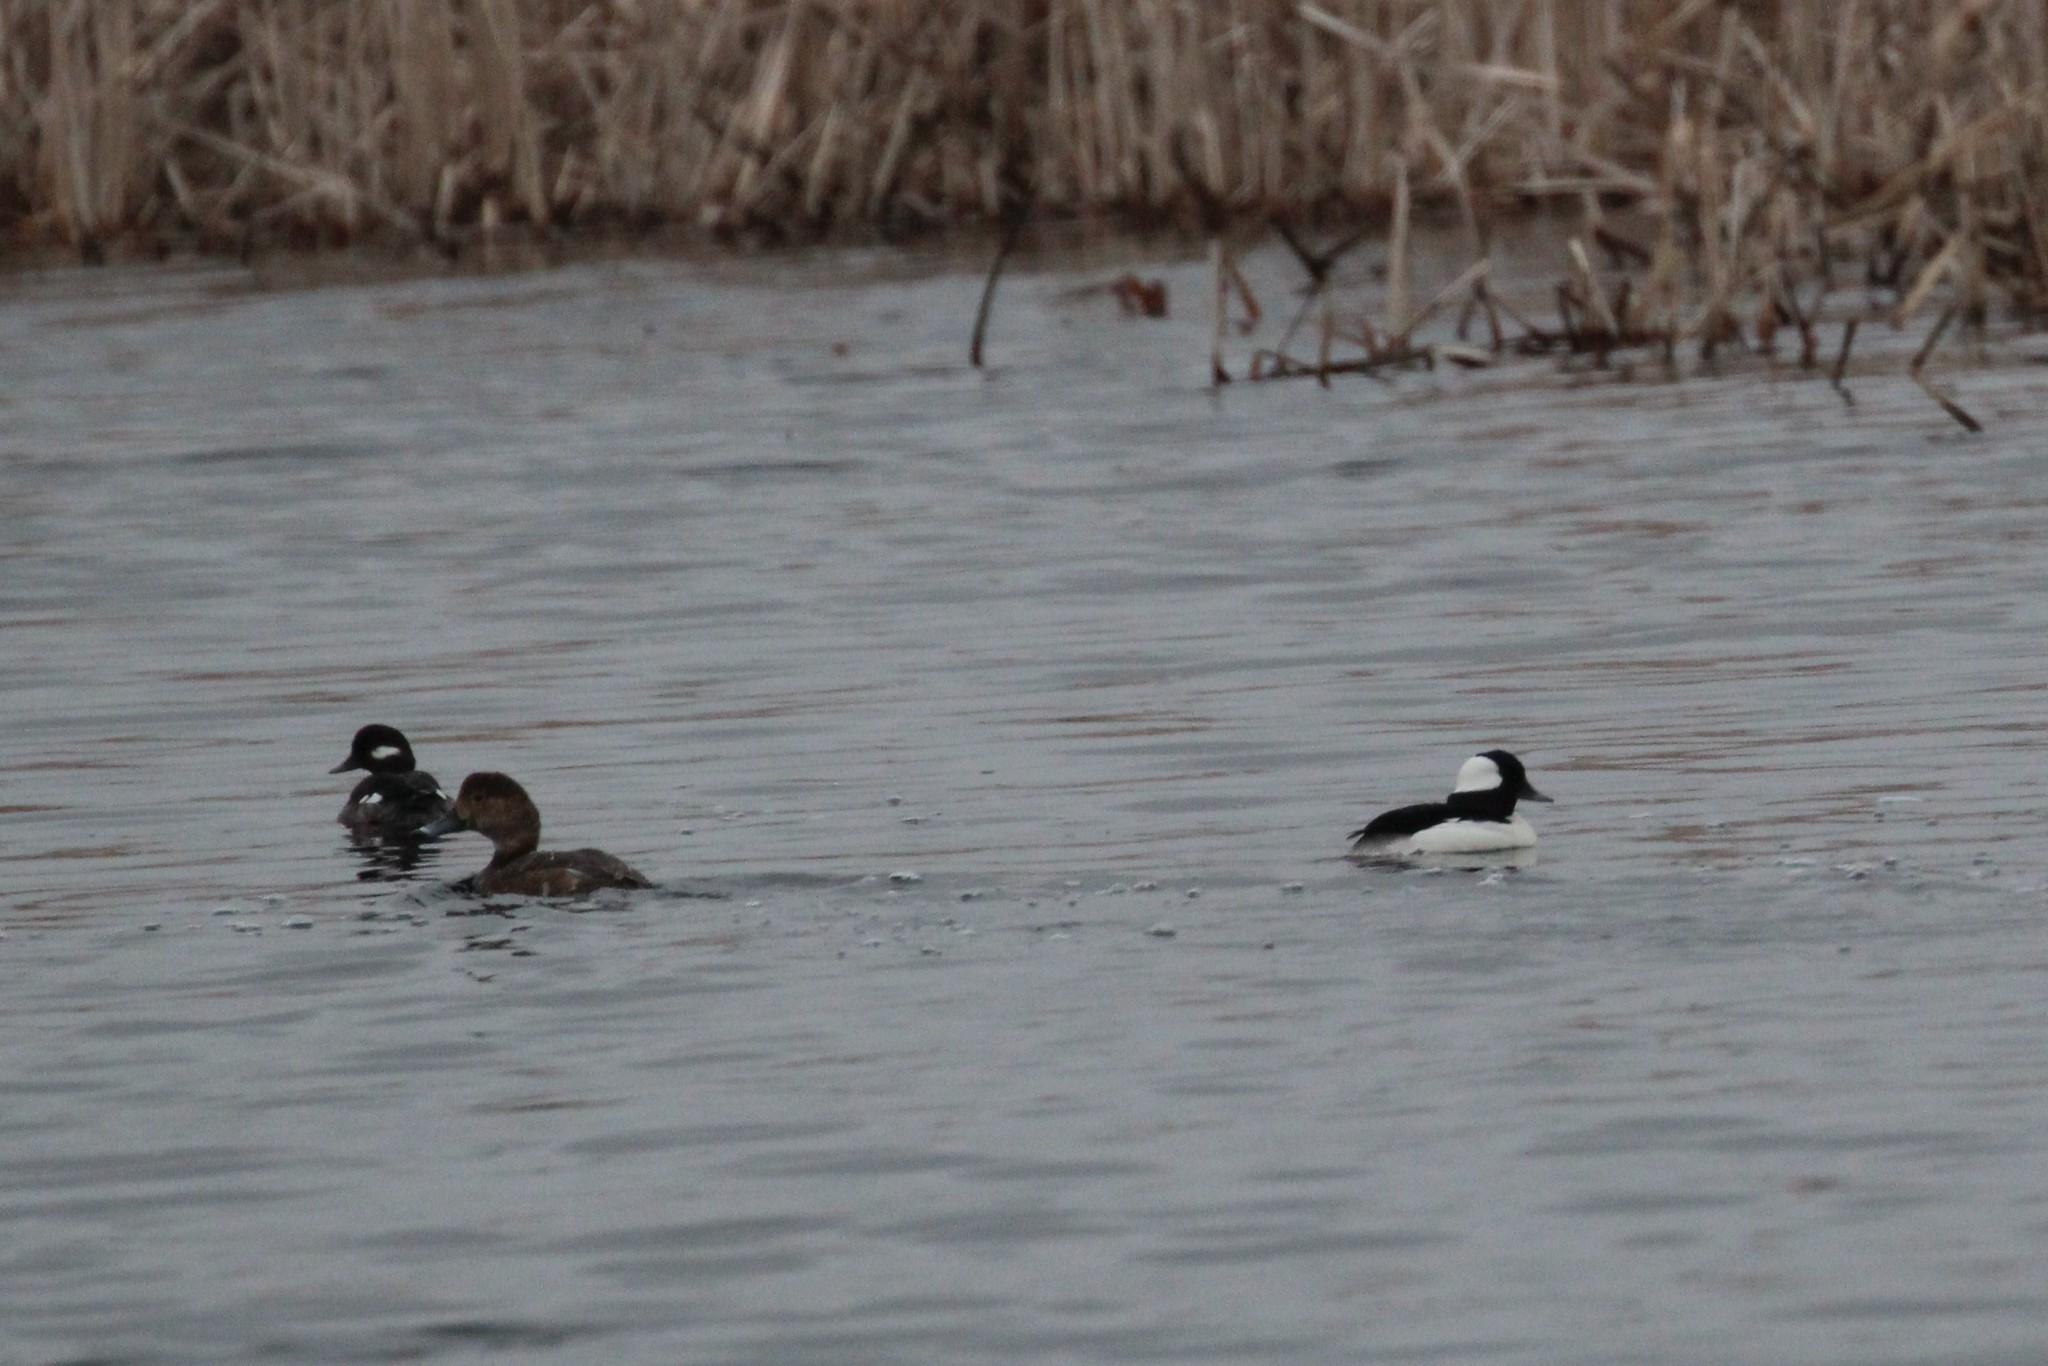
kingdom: Animalia
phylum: Chordata
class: Aves
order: Anseriformes
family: Anatidae
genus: Bucephala
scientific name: Bucephala albeola
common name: Bufflehead
